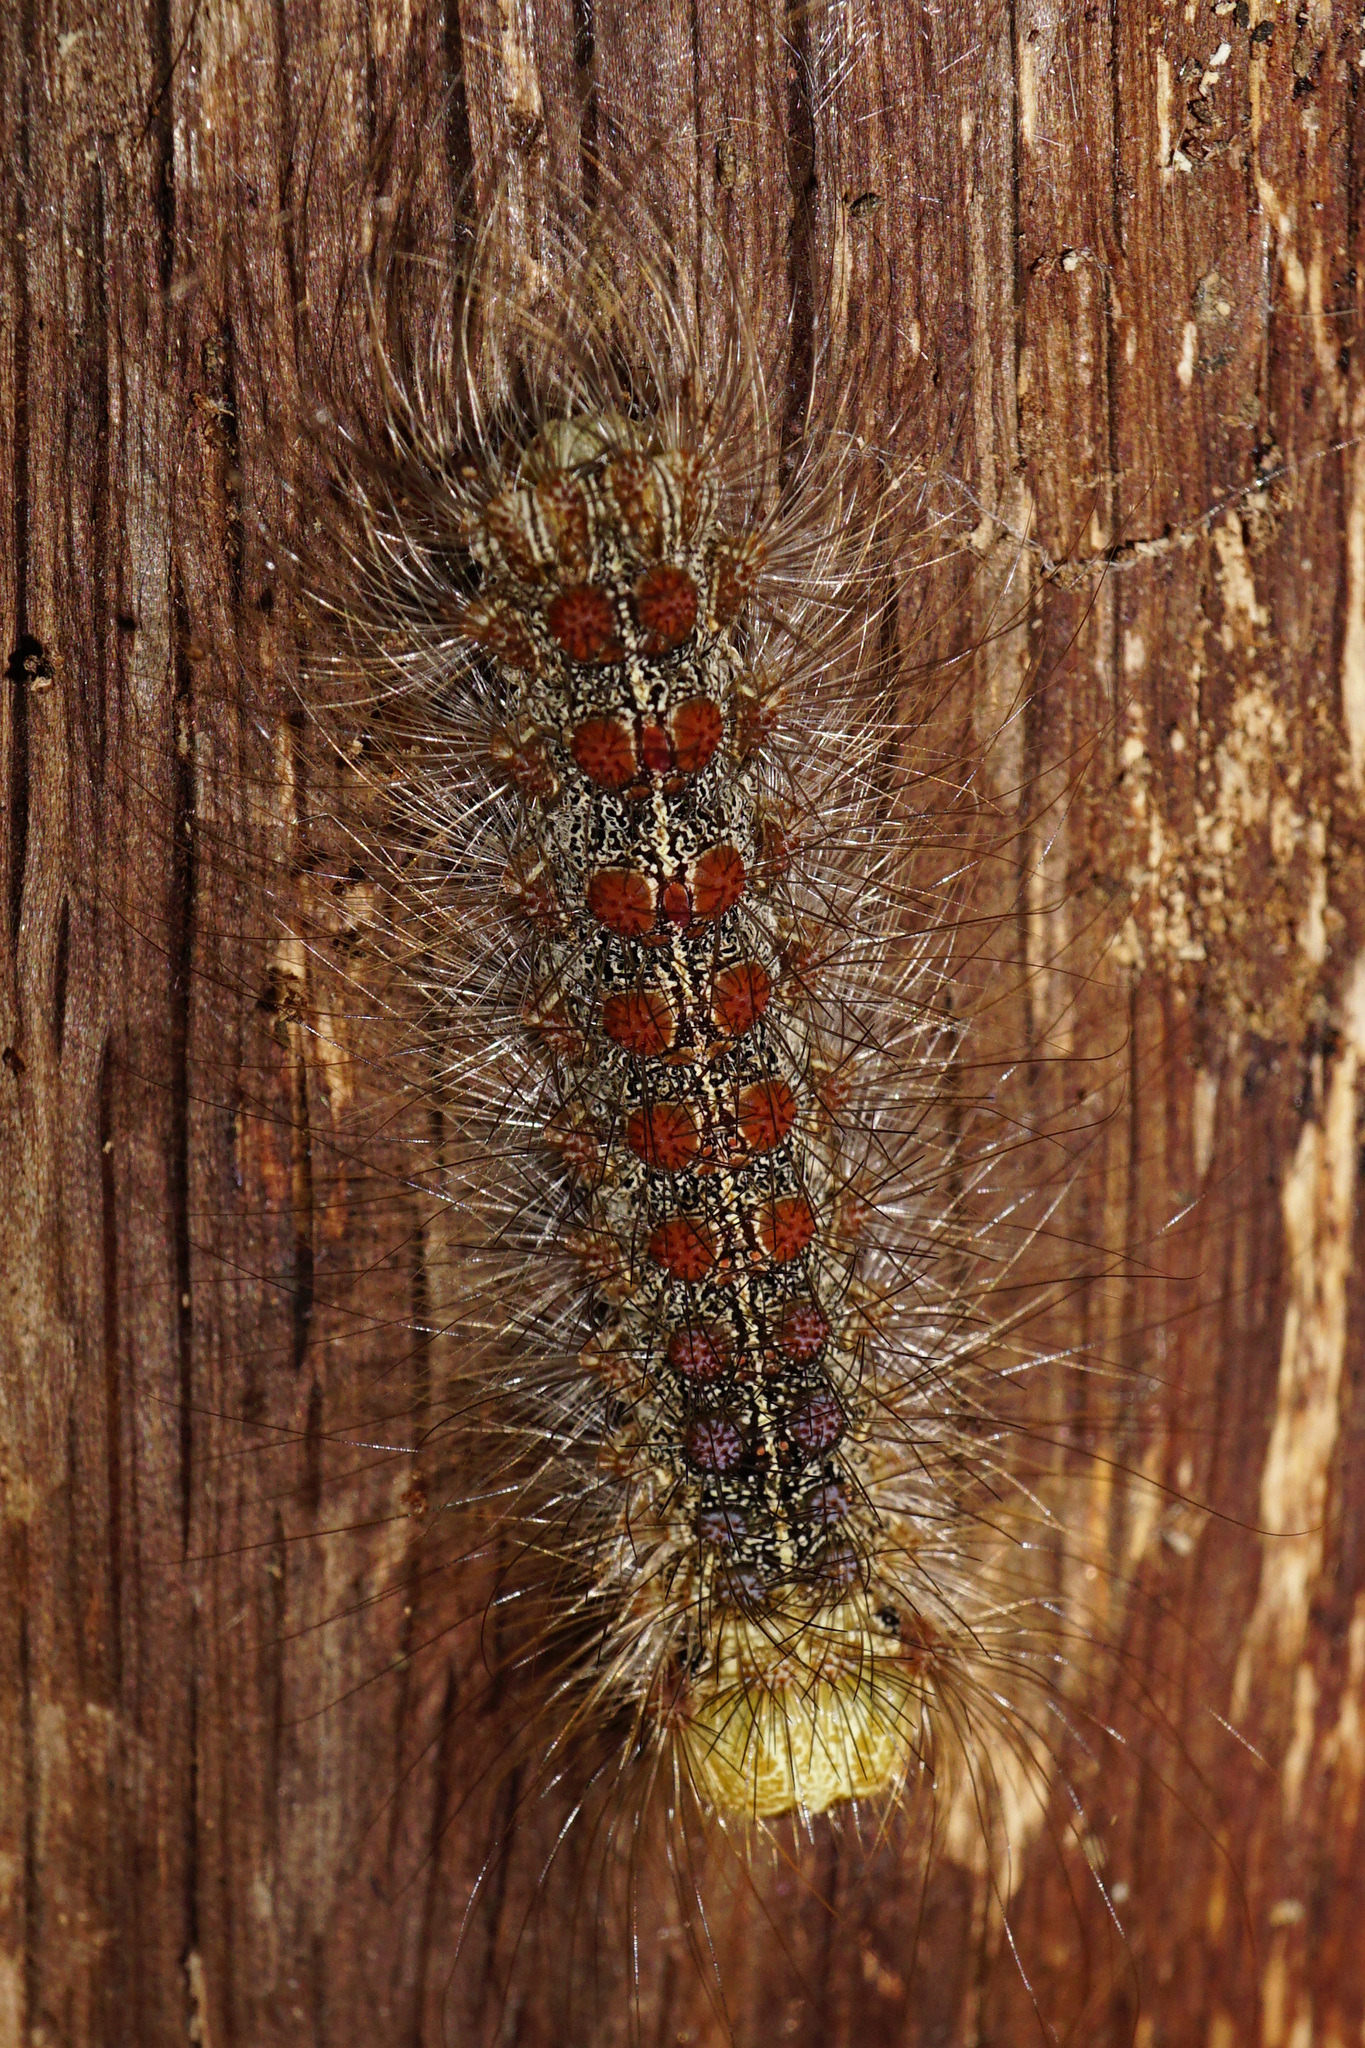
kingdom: Animalia
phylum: Arthropoda
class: Insecta
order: Lepidoptera
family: Erebidae
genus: Lymantria
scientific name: Lymantria dispar
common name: Gypsy moth
